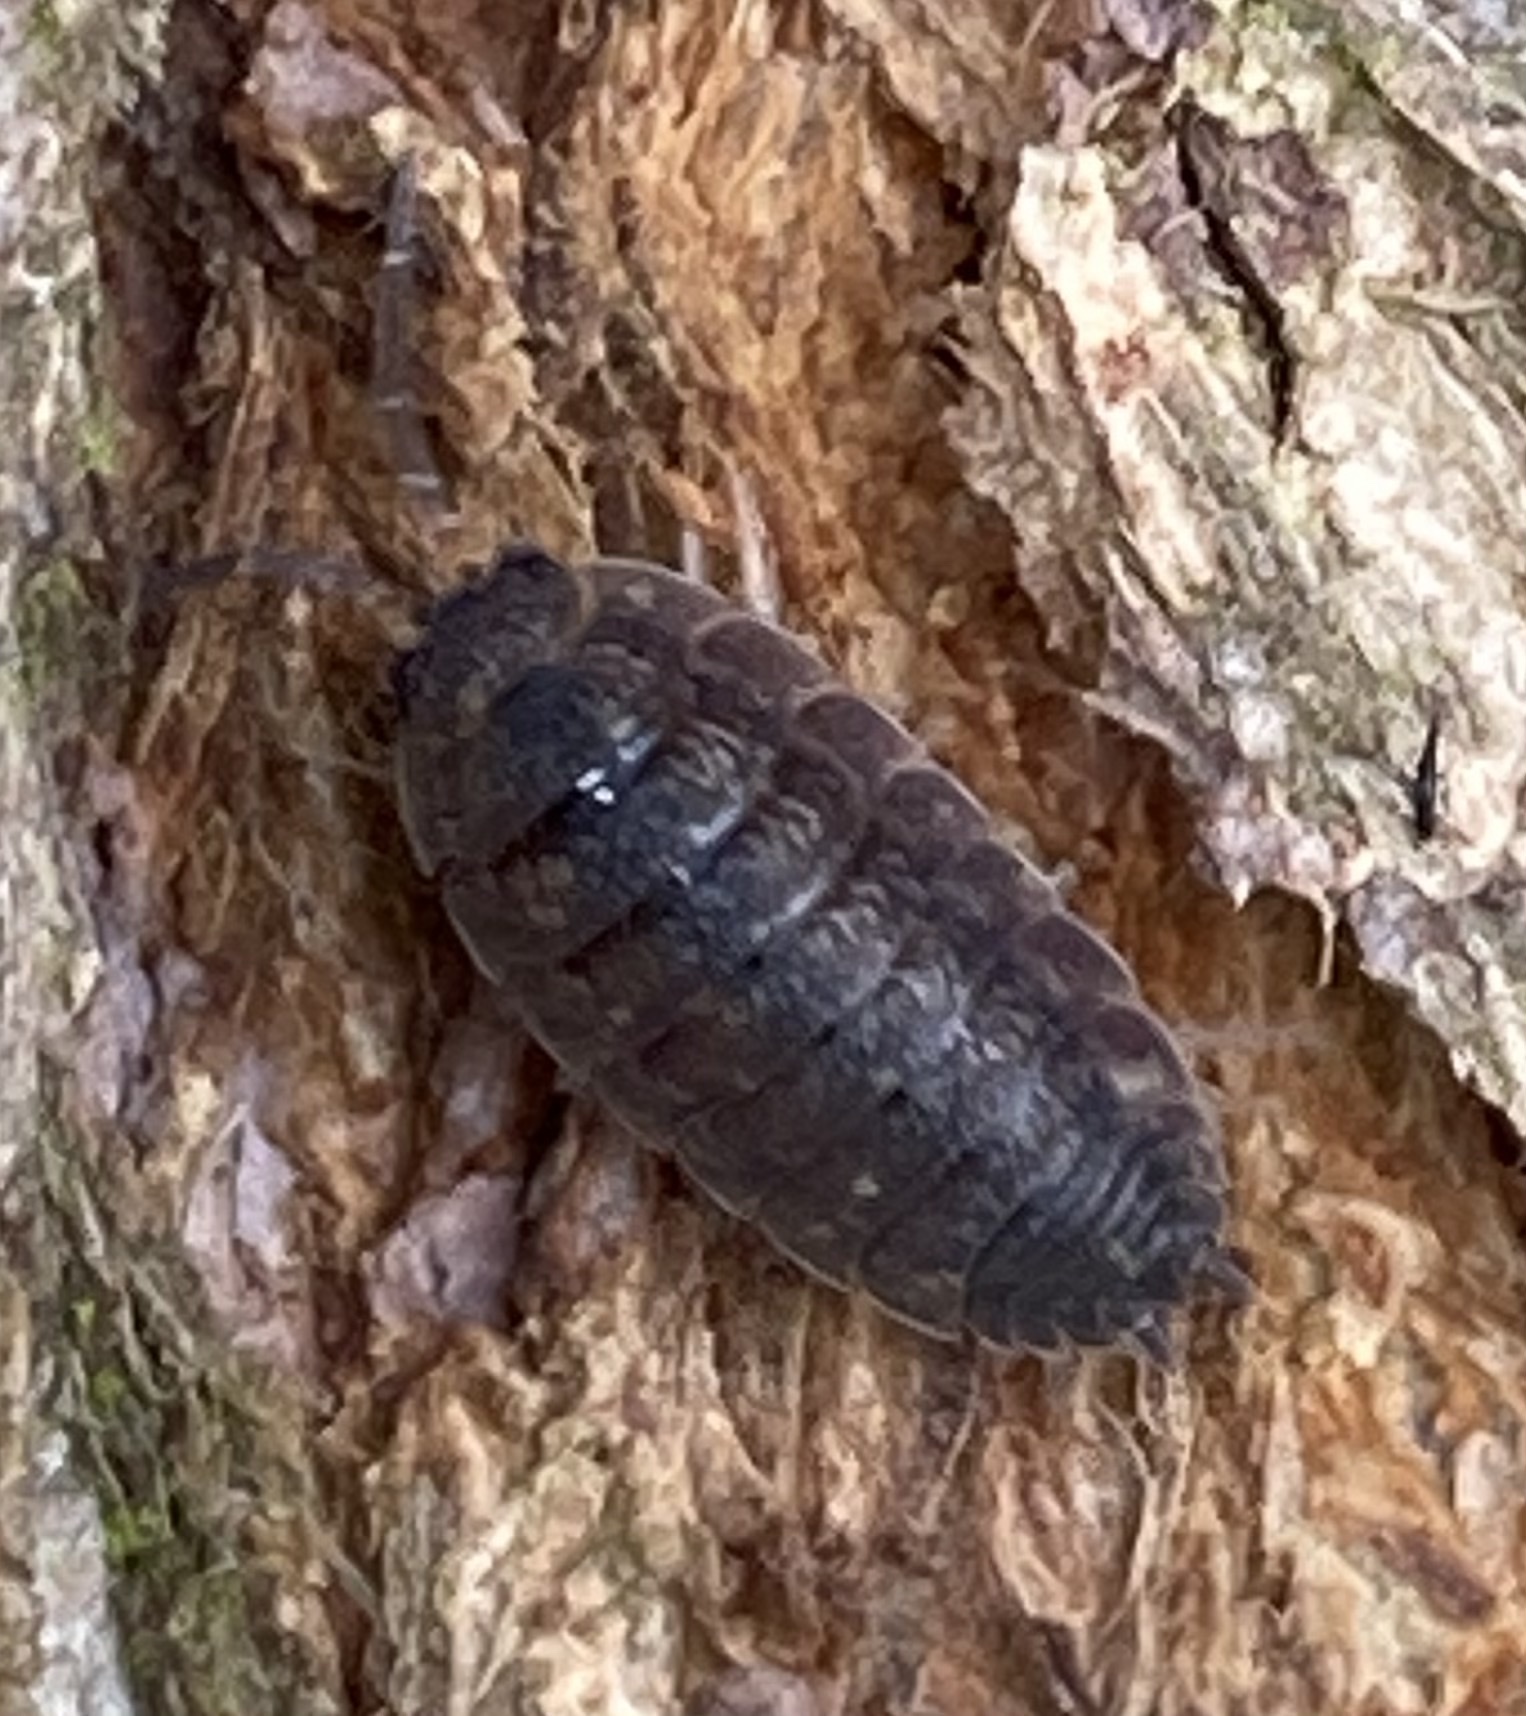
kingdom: Animalia
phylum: Arthropoda
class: Malacostraca
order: Isopoda
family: Porcellionidae
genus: Porcellio
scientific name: Porcellio scaber
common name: Common rough woodlouse
